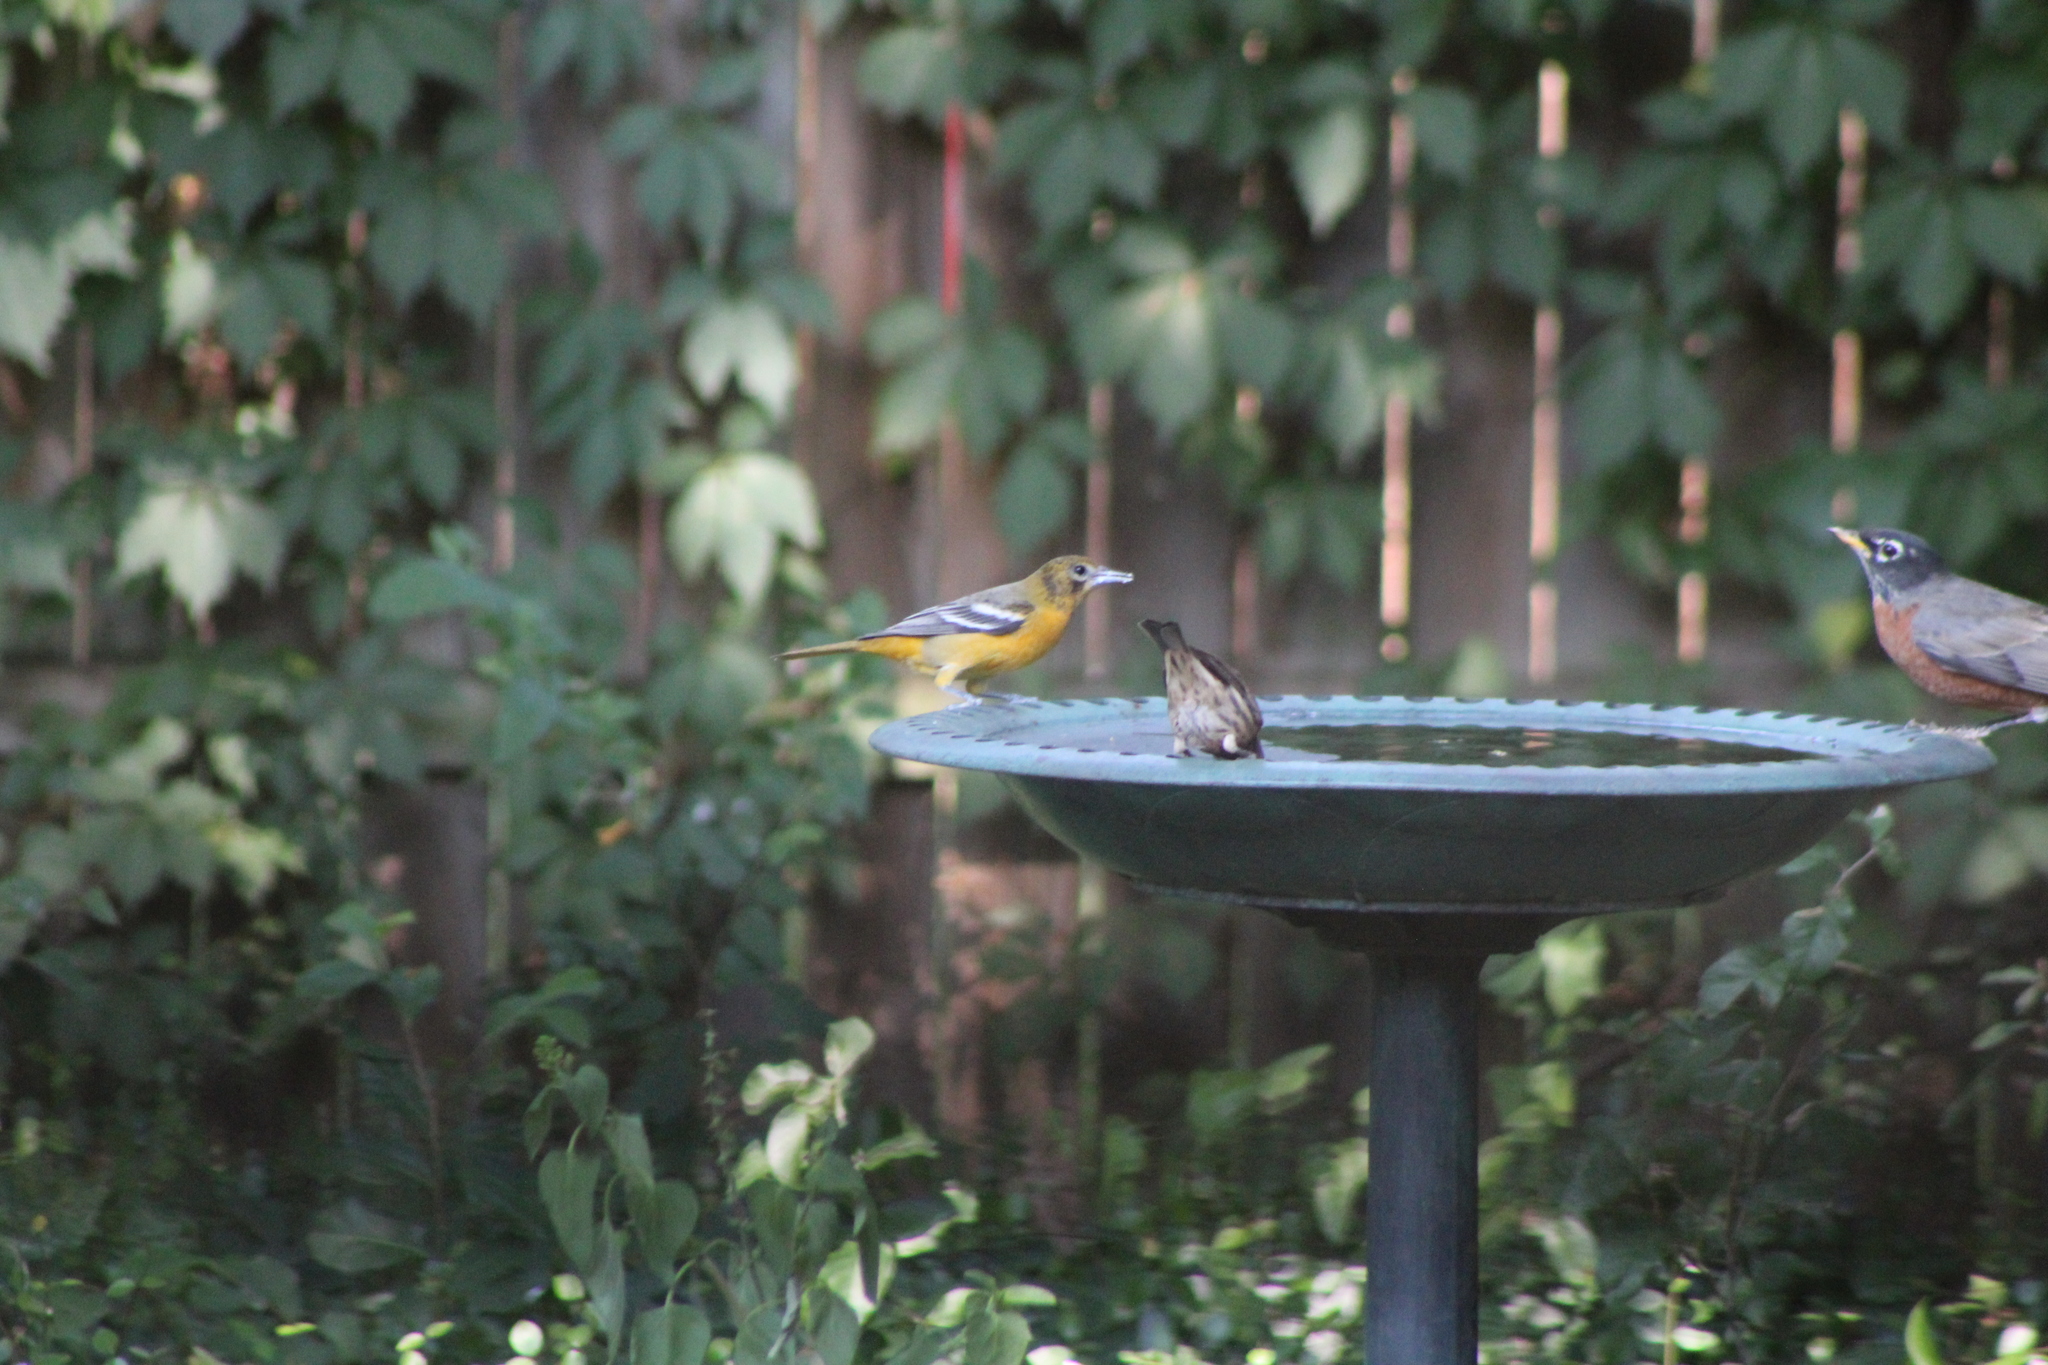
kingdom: Animalia
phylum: Chordata
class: Aves
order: Passeriformes
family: Turdidae
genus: Turdus
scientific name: Turdus migratorius
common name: American robin
